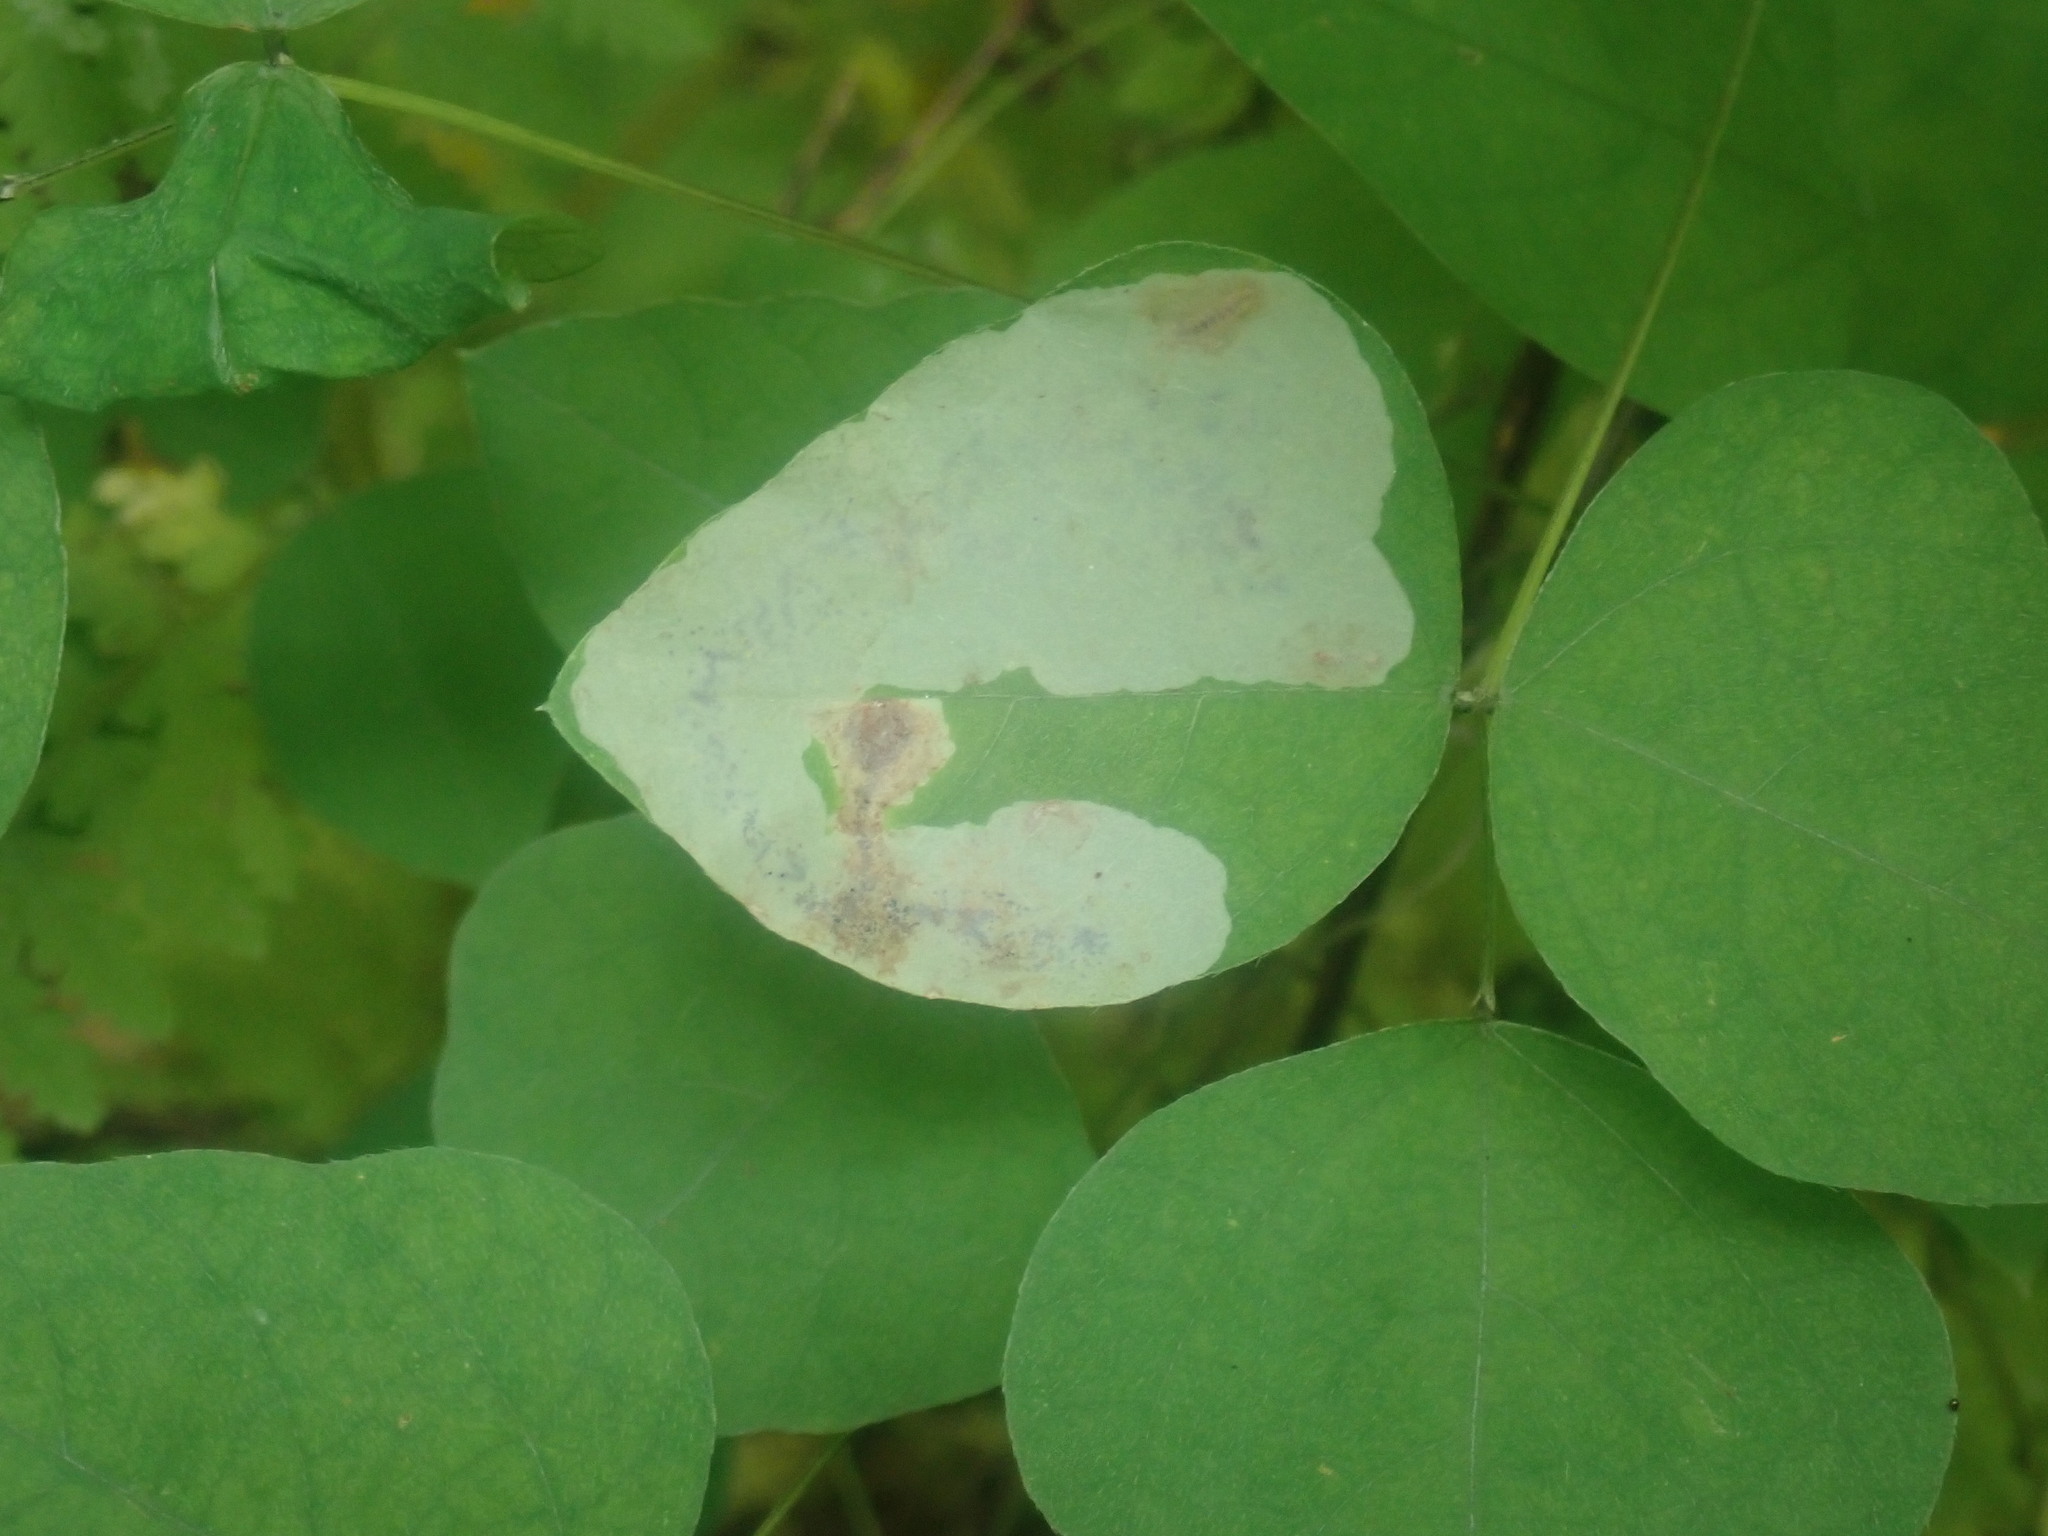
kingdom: Animalia
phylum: Arthropoda
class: Insecta
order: Lepidoptera
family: Gracillariidae
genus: Leucanthiza
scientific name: Leucanthiza amphicarpeaefoliella
